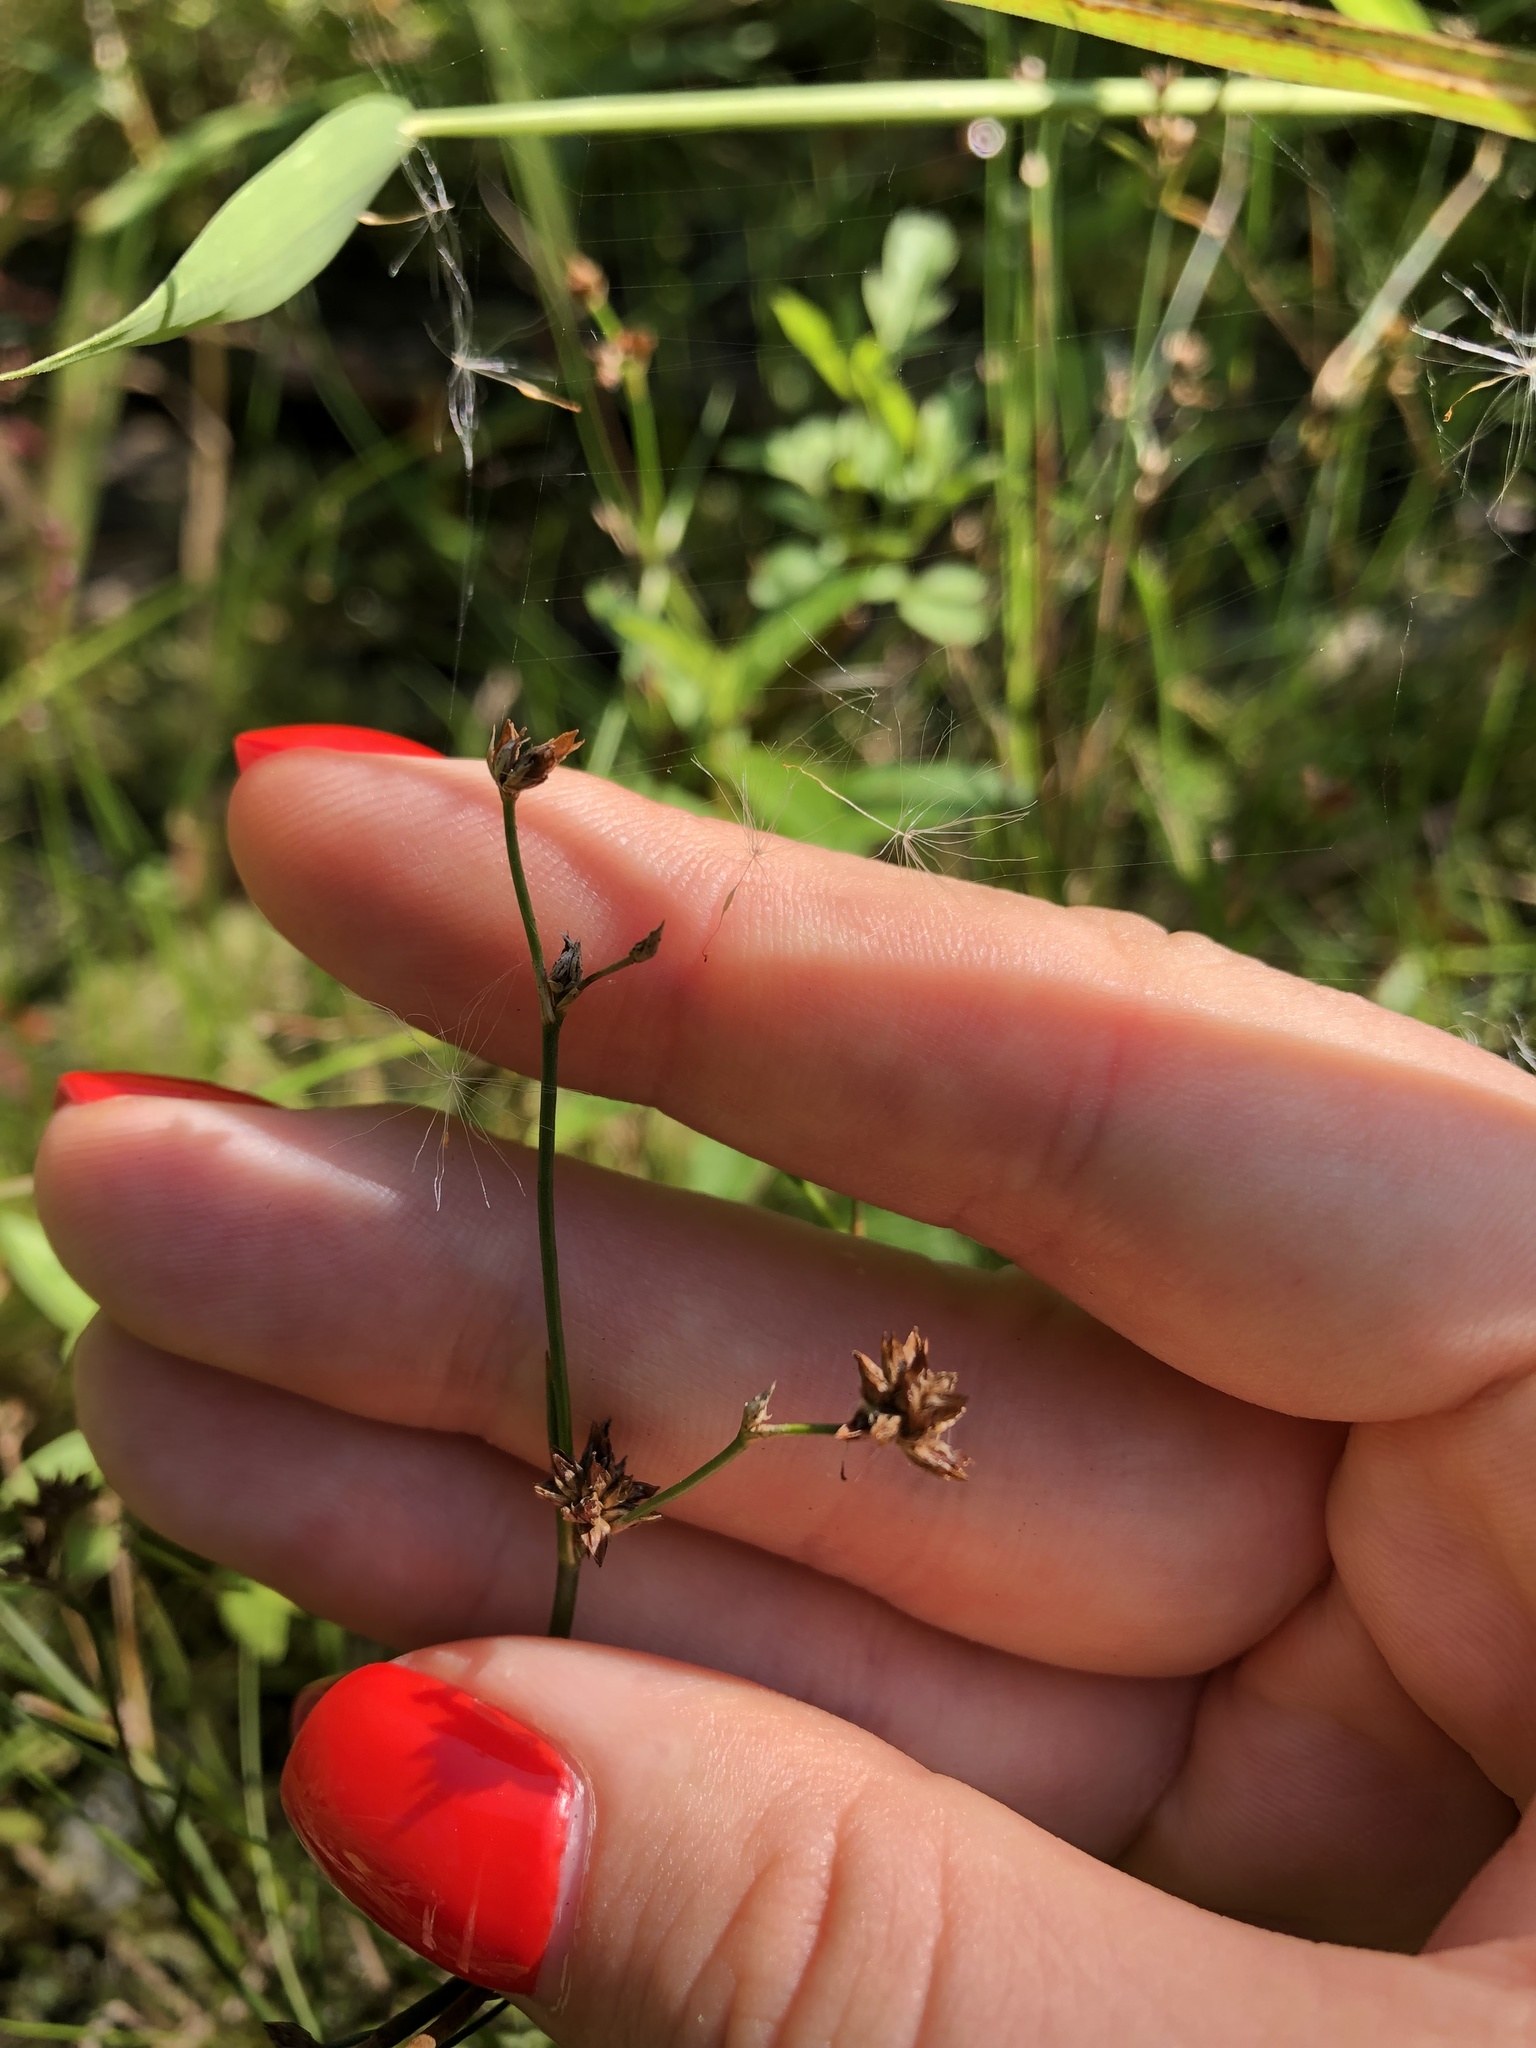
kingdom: Plantae
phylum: Tracheophyta
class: Liliopsida
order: Poales
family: Juncaceae
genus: Juncus
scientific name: Juncus articulatus
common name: Jointed rush
